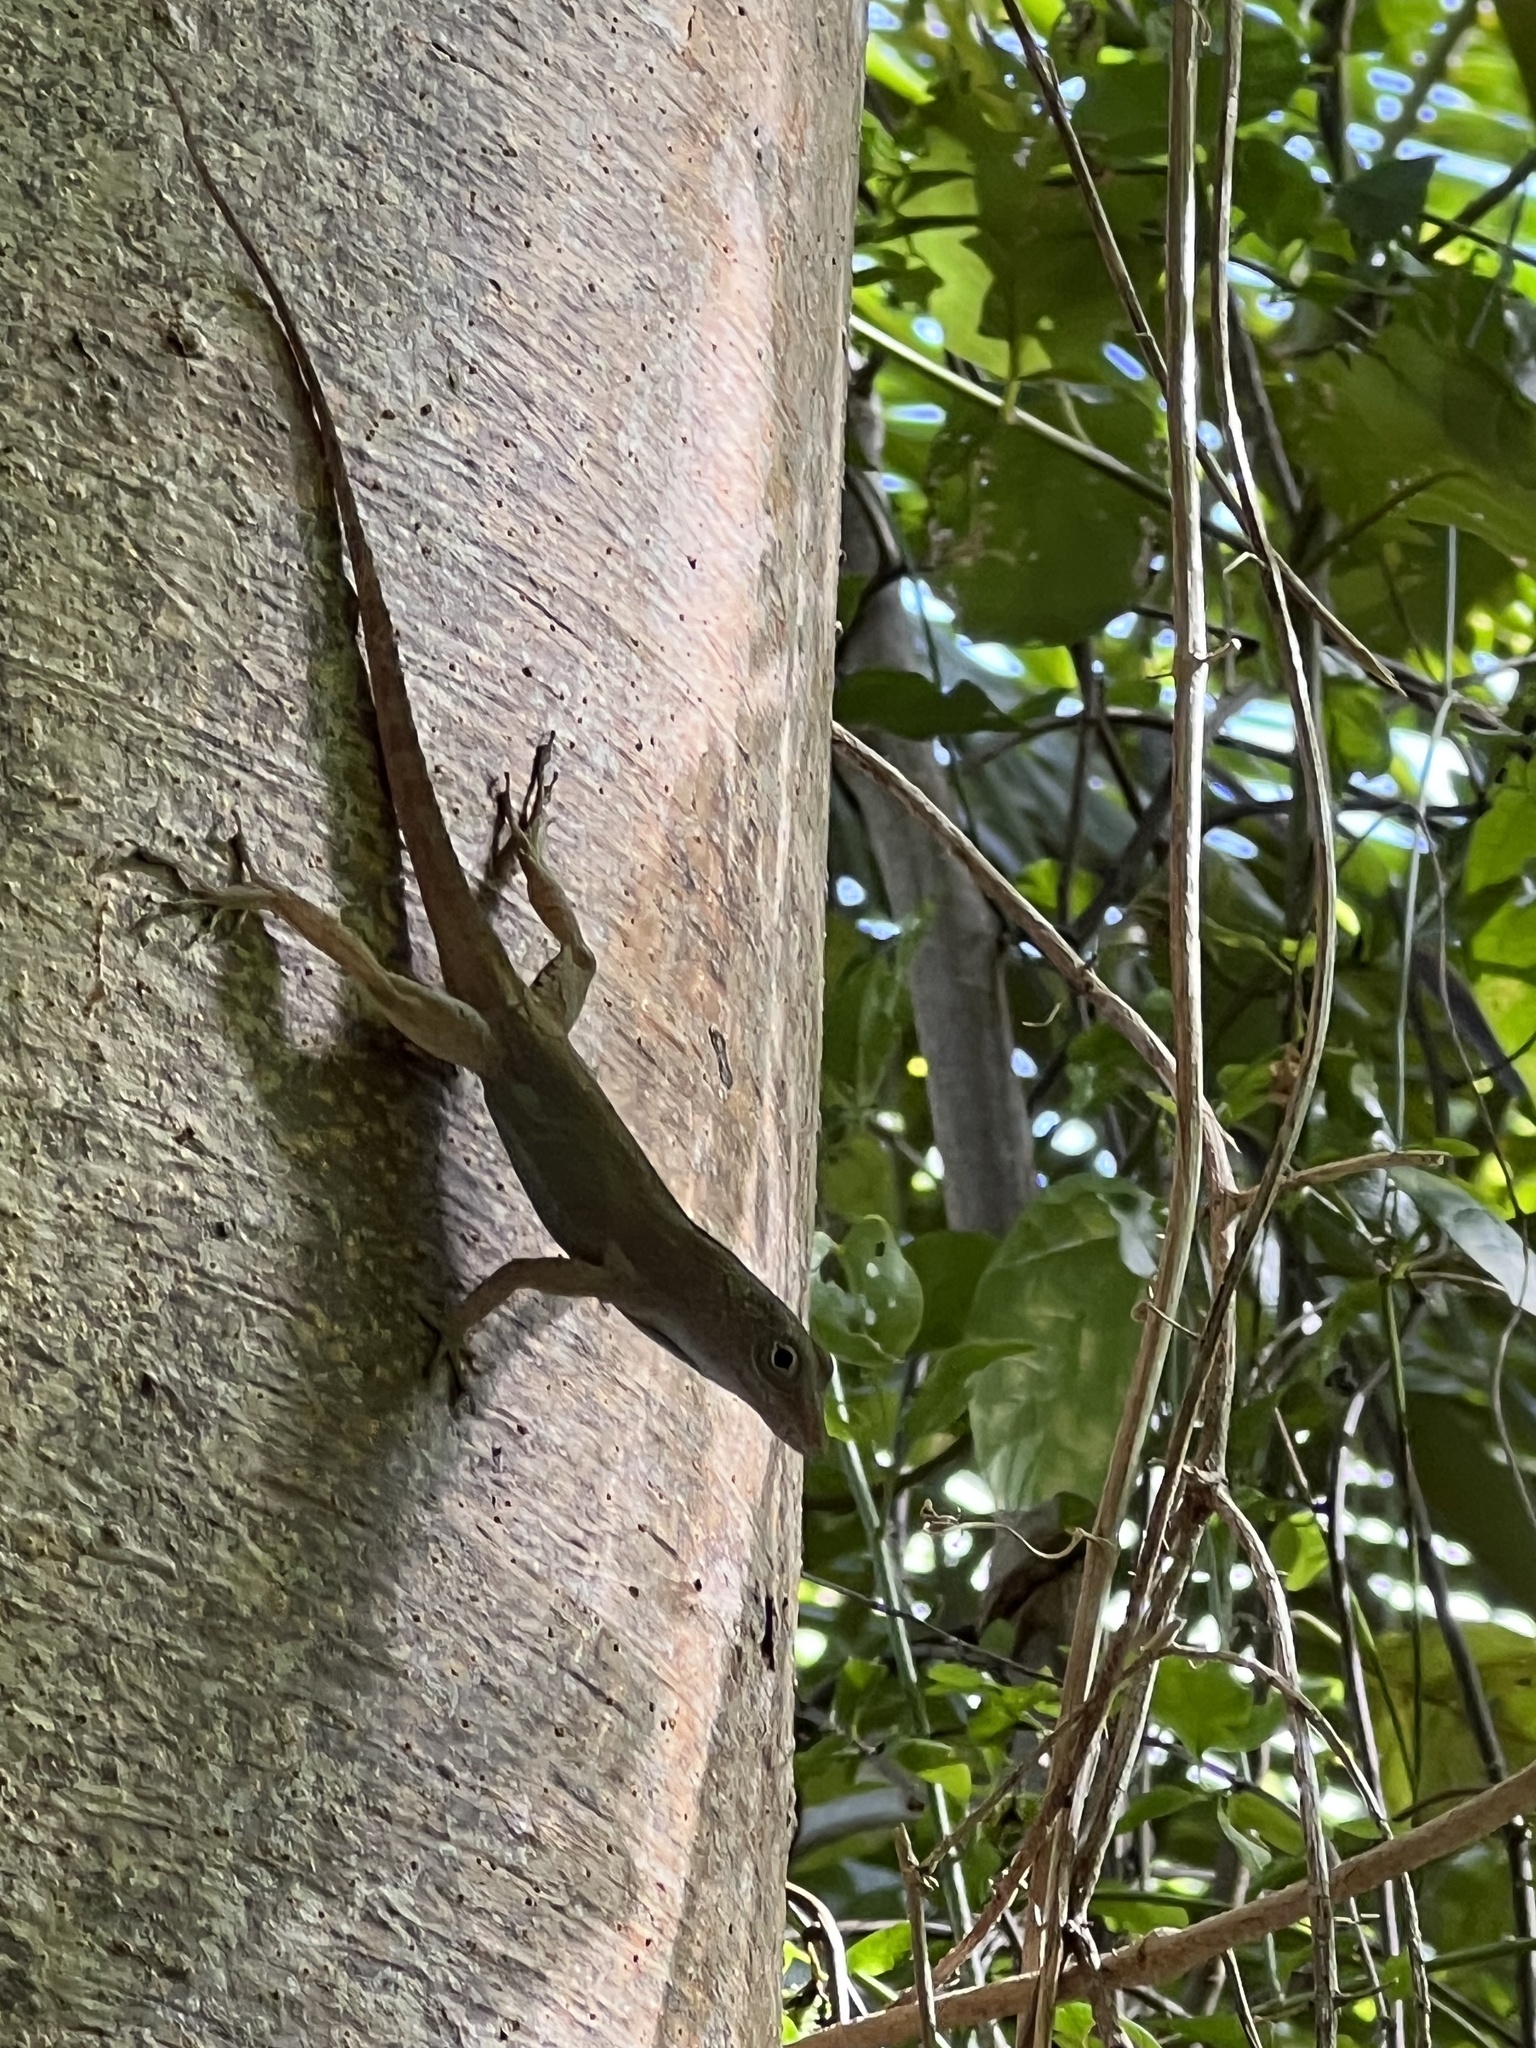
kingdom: Animalia
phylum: Chordata
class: Squamata
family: Dactyloidae
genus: Anolis
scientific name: Anolis cristatellus
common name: Crested anole
